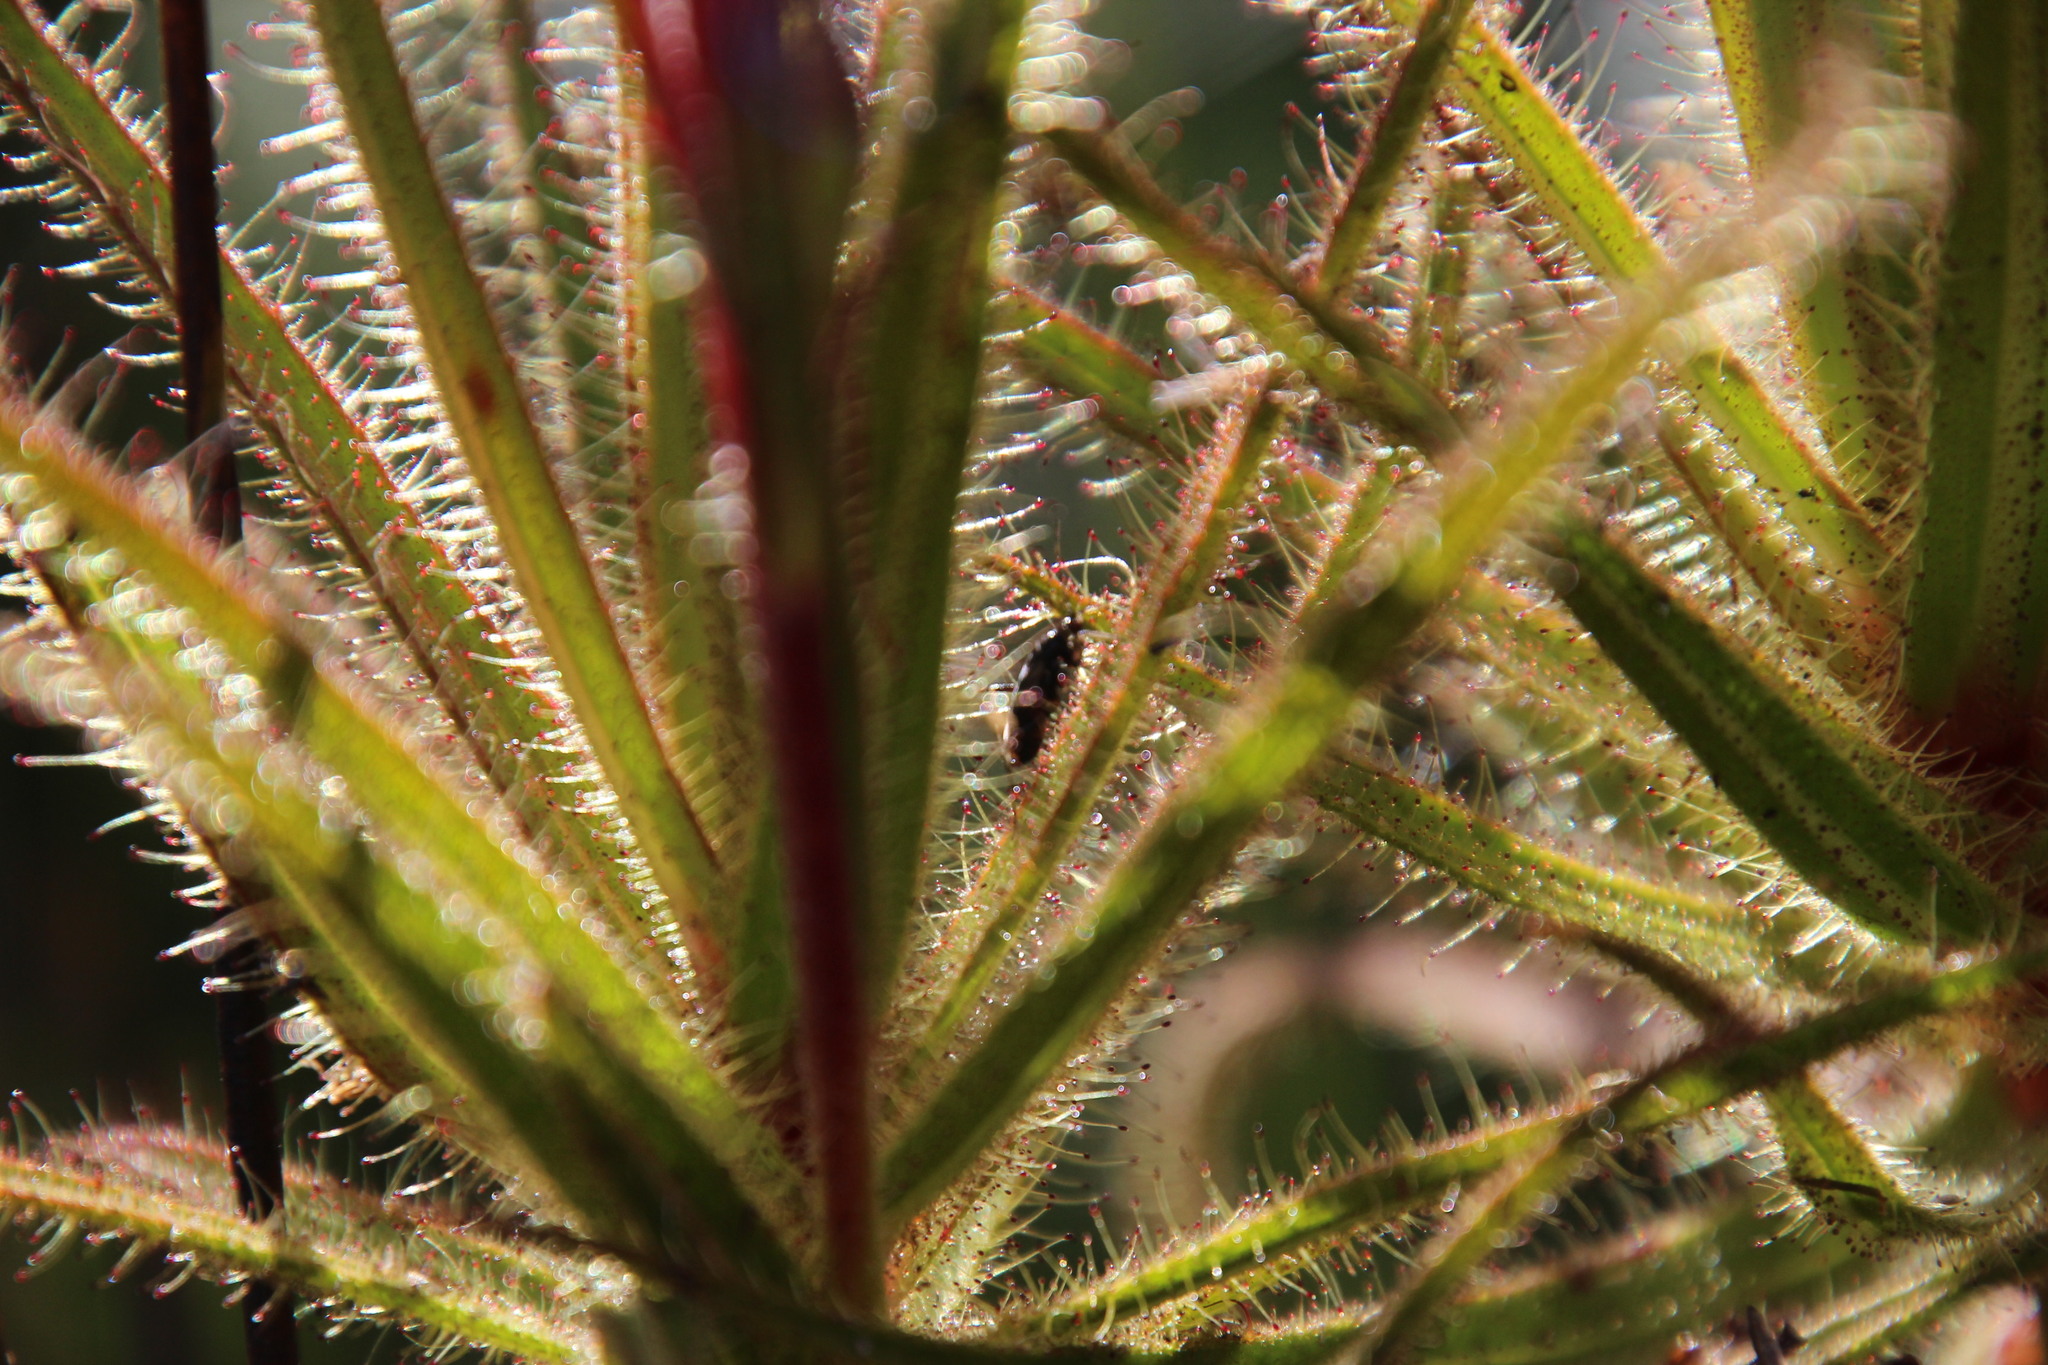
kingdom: Animalia
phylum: Arthropoda
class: Insecta
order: Hemiptera
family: Miridae
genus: Pameridea
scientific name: Pameridea roridulae
